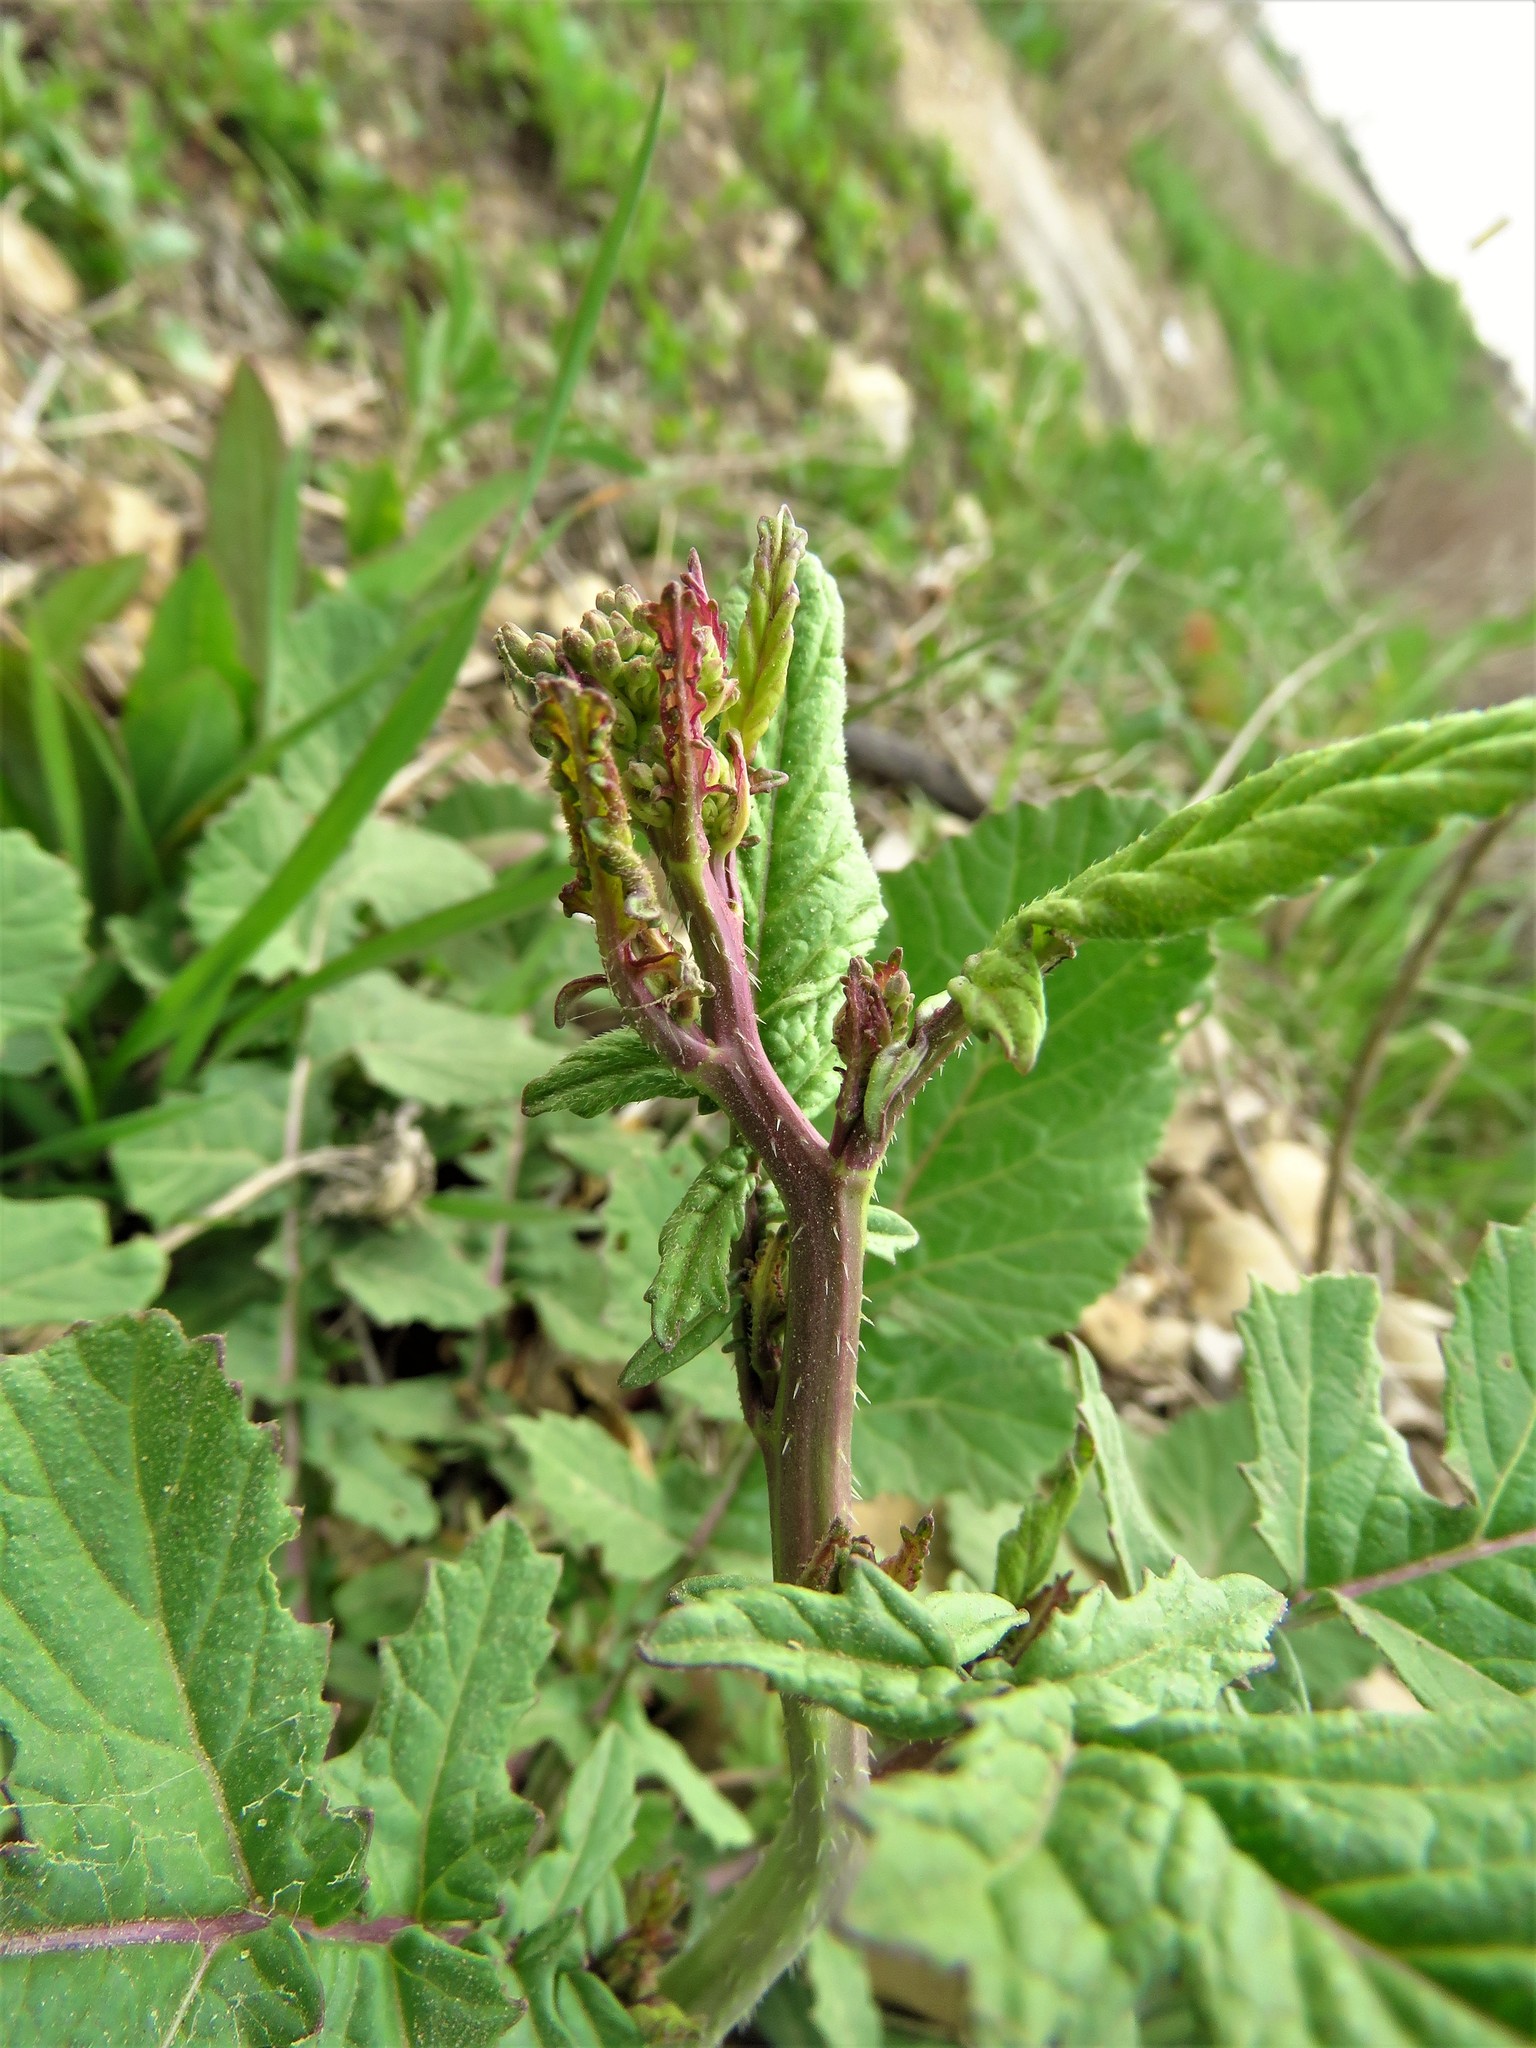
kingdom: Plantae
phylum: Tracheophyta
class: Magnoliopsida
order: Brassicales
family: Brassicaceae
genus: Rapistrum
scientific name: Rapistrum rugosum
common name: Annual bastardcabbage
